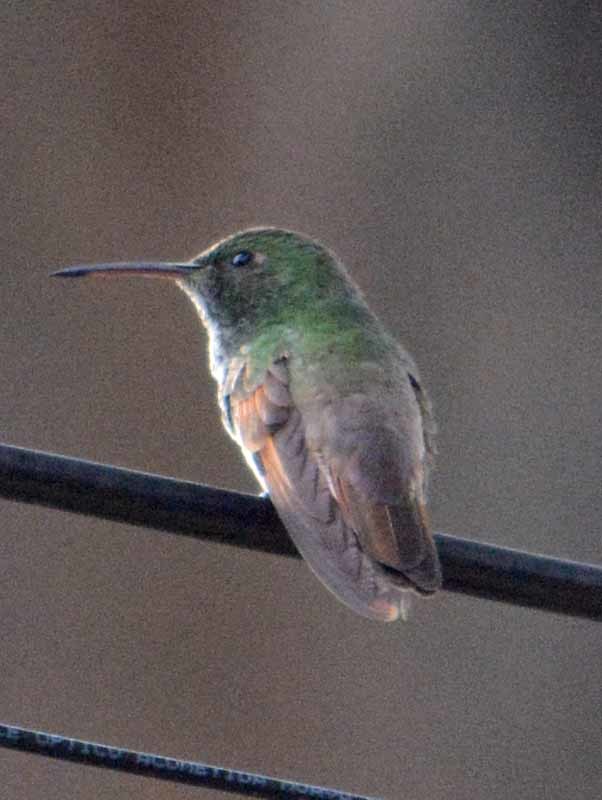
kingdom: Animalia
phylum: Chordata
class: Aves
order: Apodiformes
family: Trochilidae
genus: Saucerottia
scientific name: Saucerottia beryllina
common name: Berylline hummingbird
